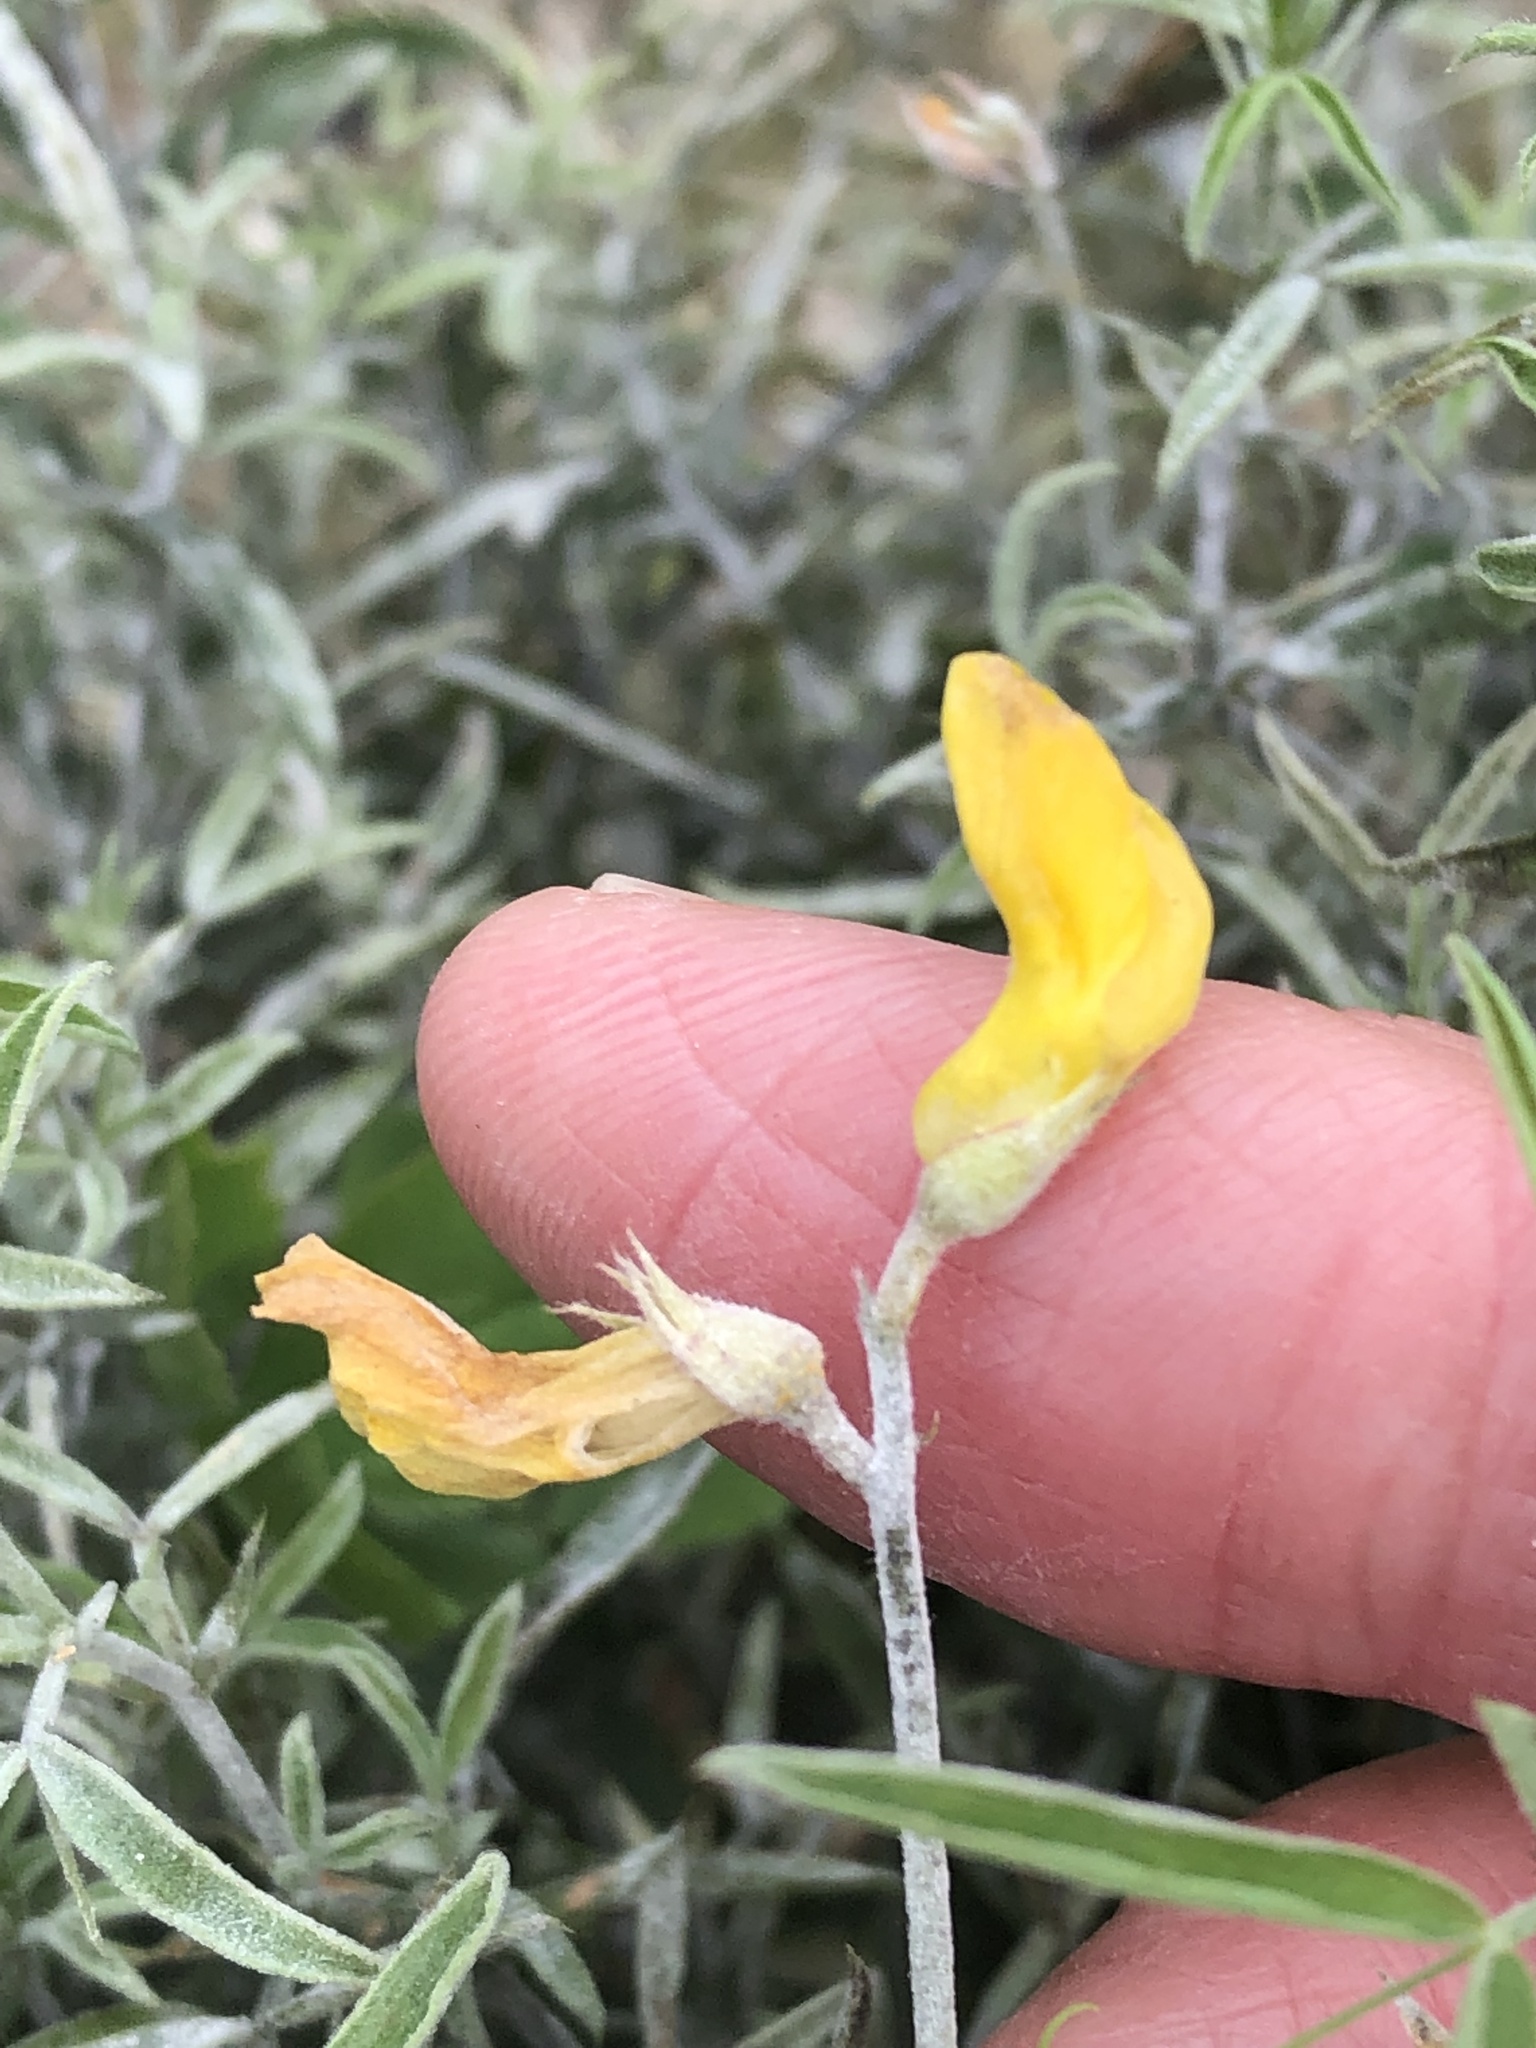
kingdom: Plantae
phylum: Tracheophyta
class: Magnoliopsida
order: Fabales
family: Fabaceae
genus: Lathyrus
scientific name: Lathyrus pratensis
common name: Meadow vetchling
